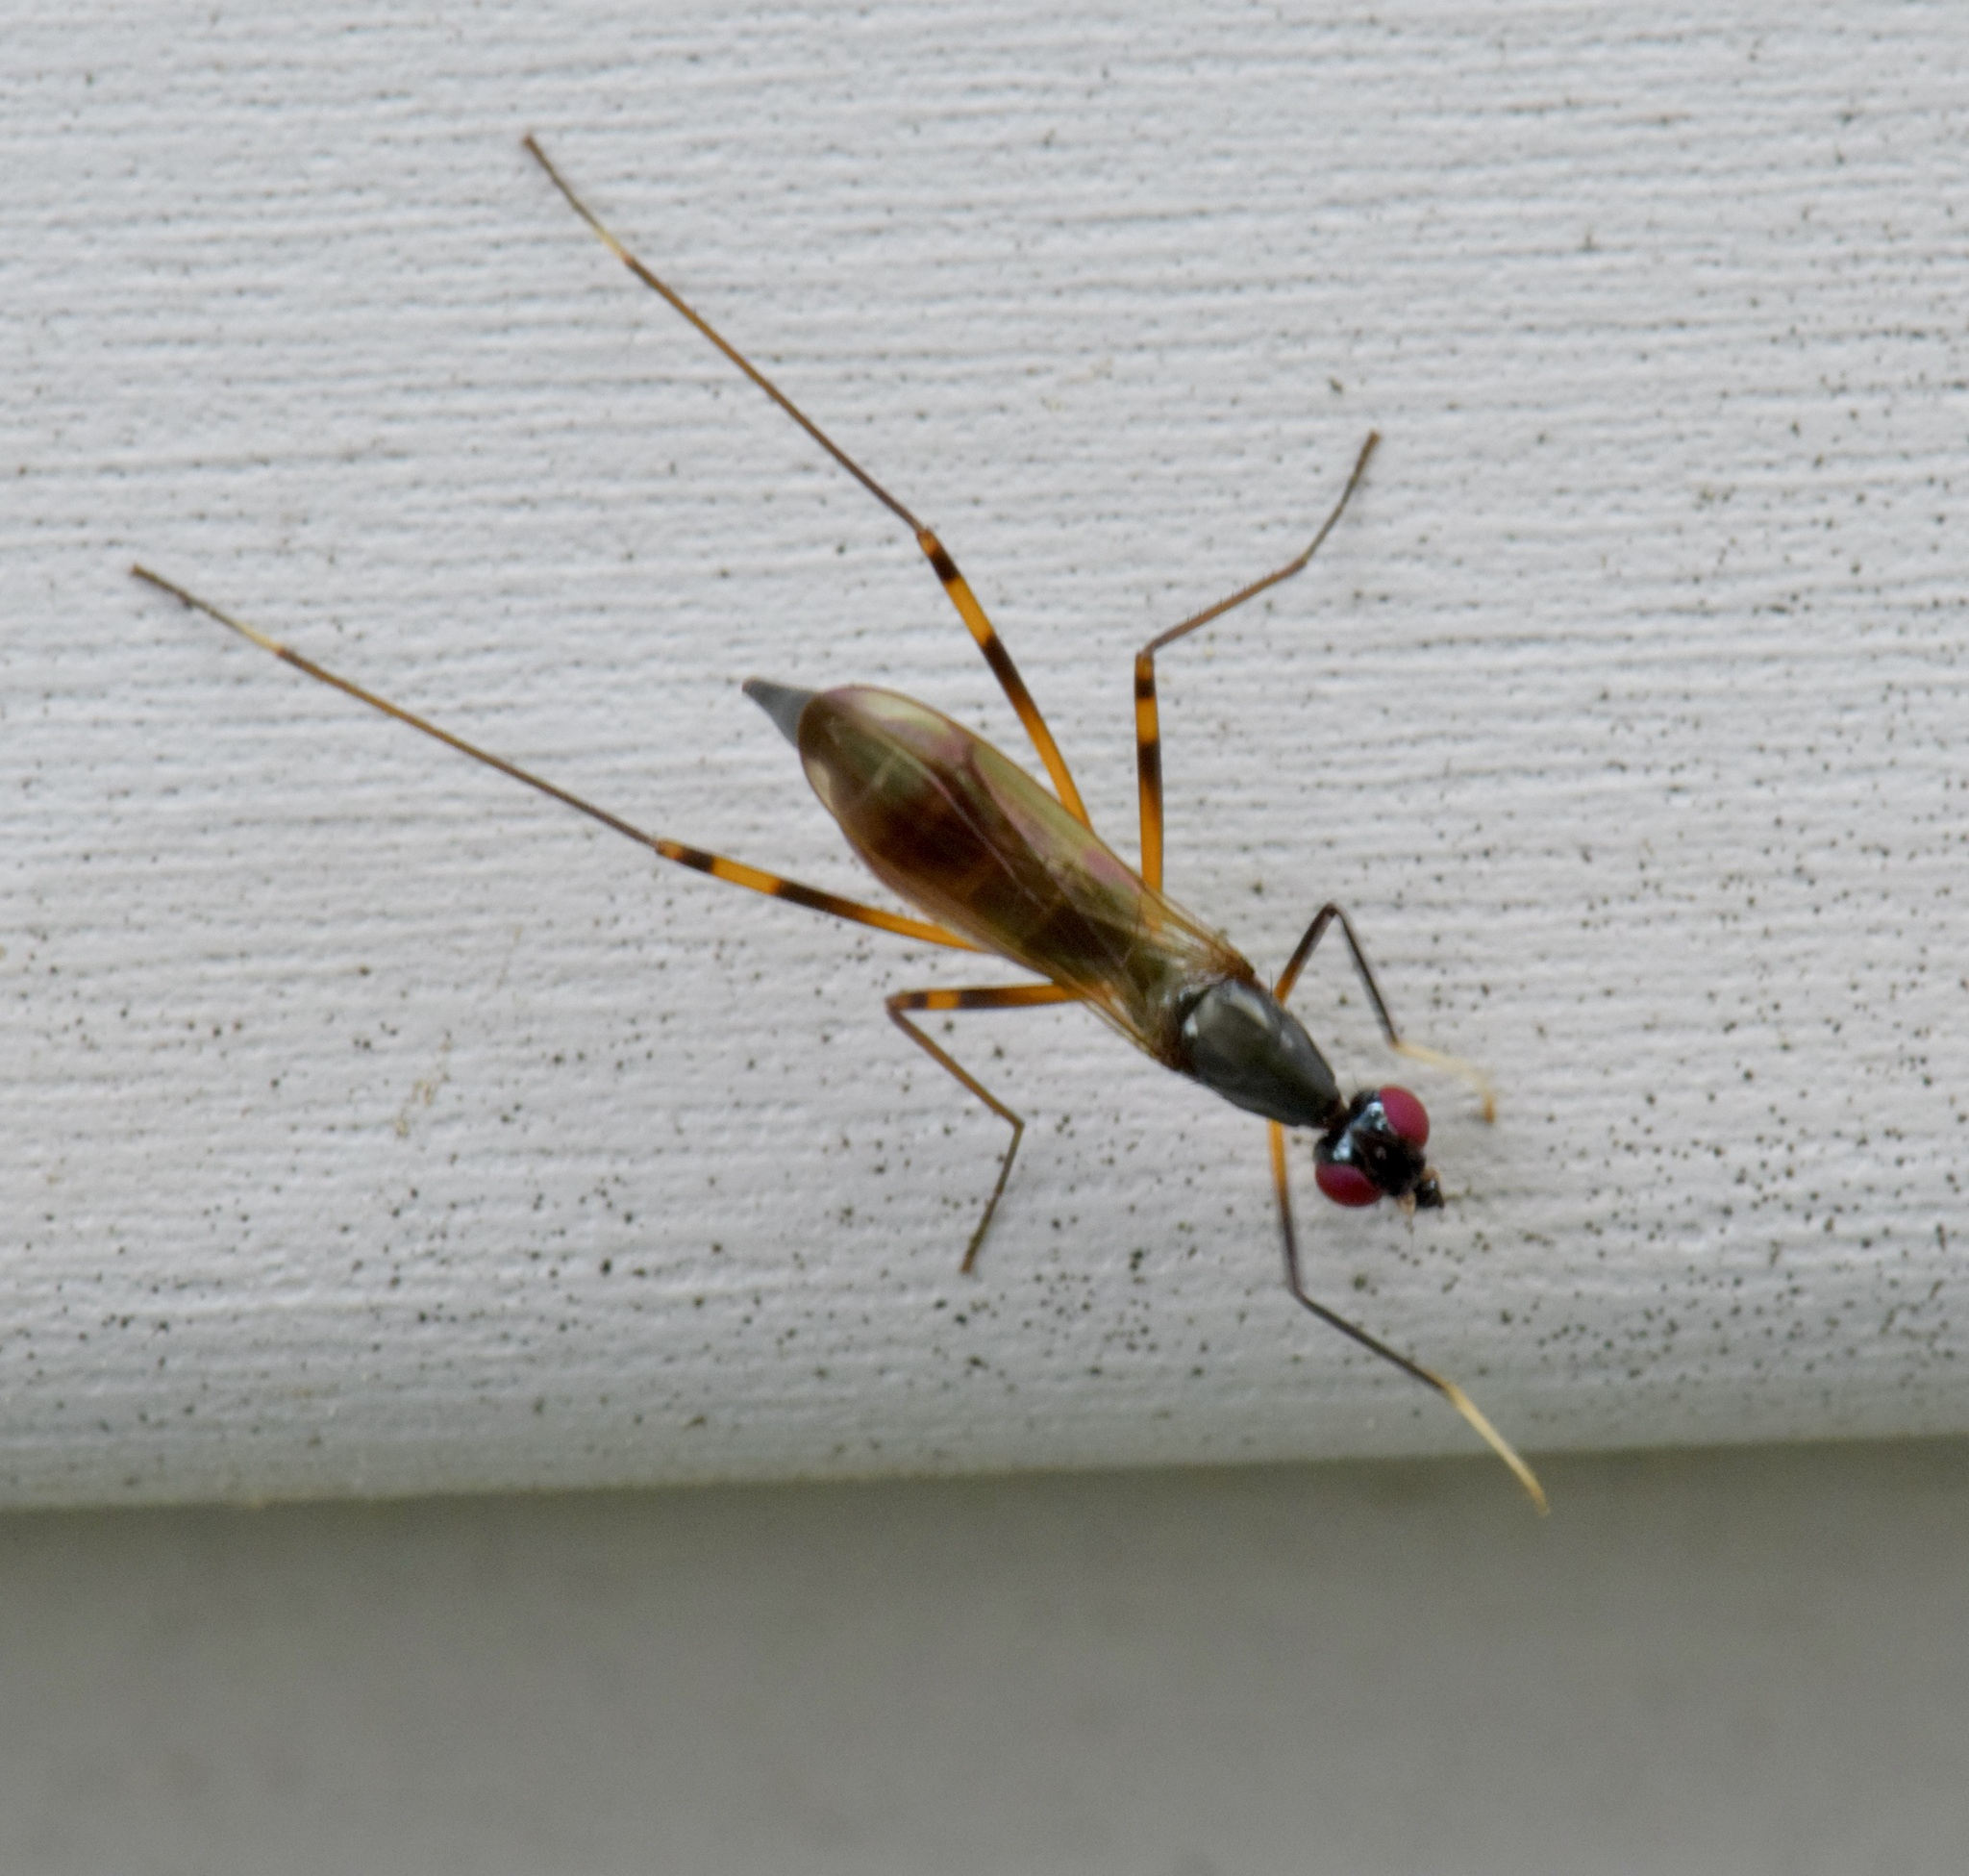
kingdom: Animalia
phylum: Arthropoda
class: Insecta
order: Diptera
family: Micropezidae
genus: Rainieria
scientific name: Rainieria antennaepes
